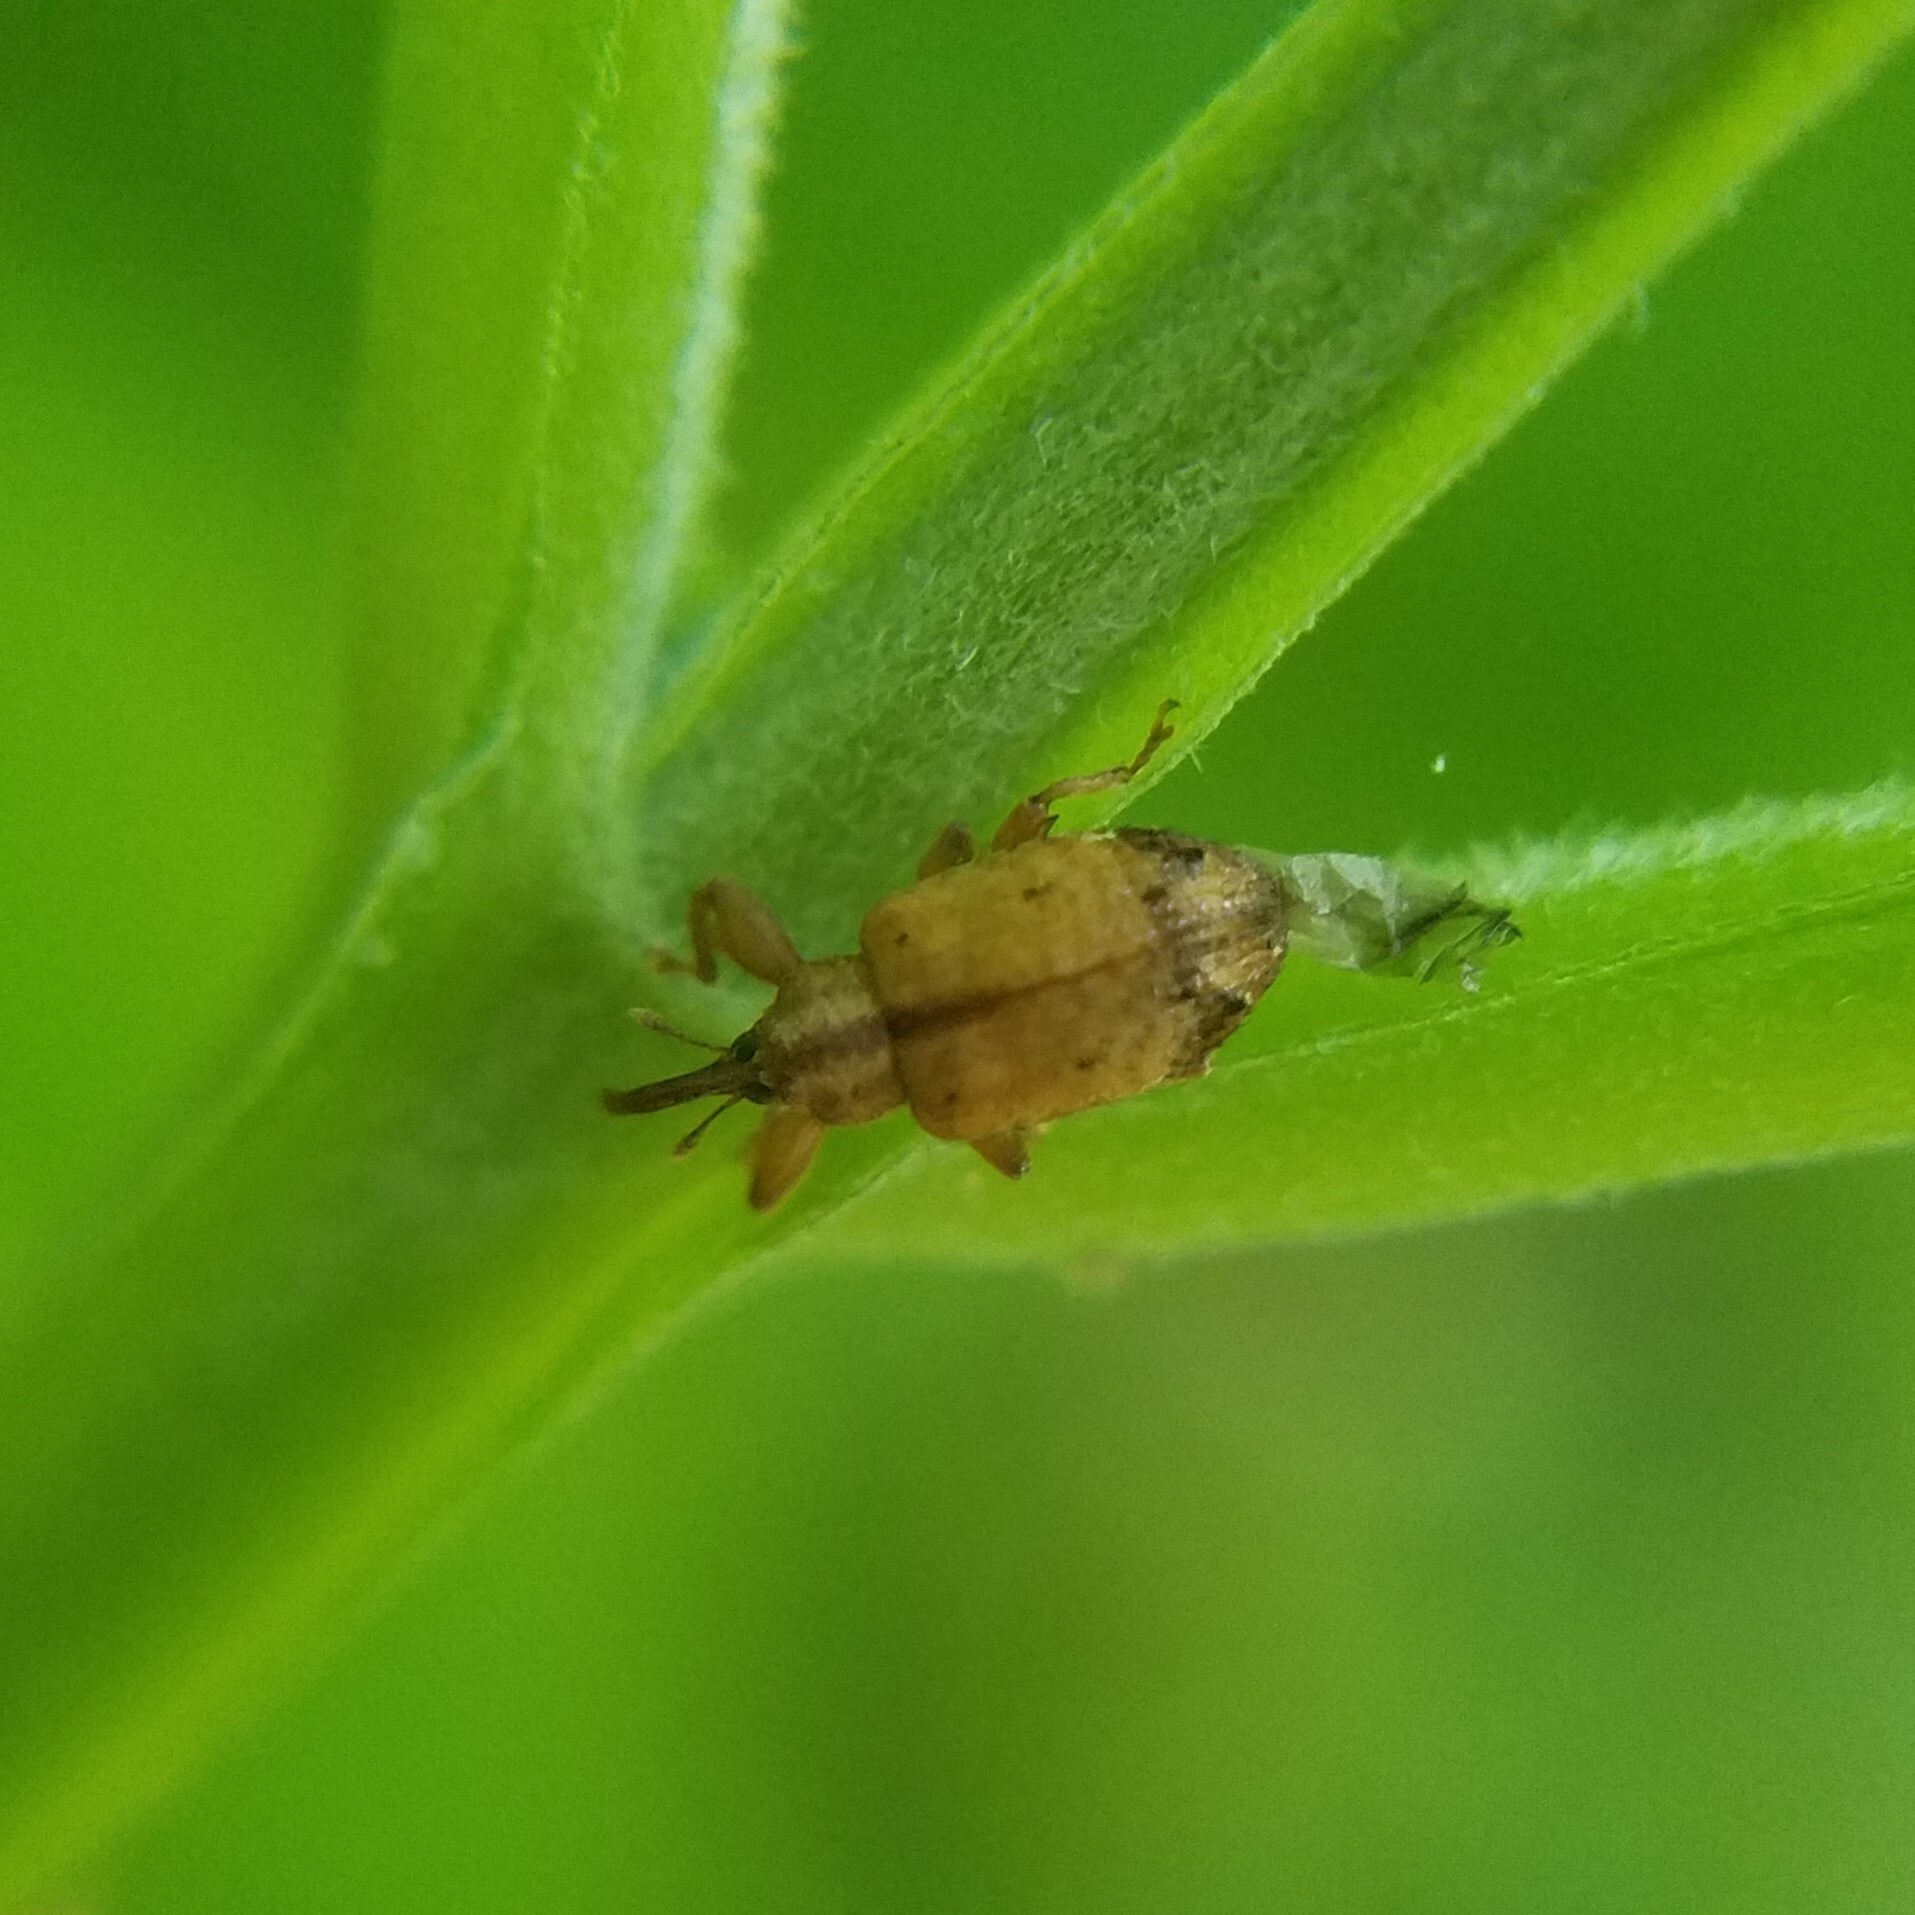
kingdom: Animalia
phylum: Arthropoda
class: Insecta
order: Coleoptera
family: Curculionidae
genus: Ochyromera
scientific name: Ochyromera ligustri
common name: Weevil
